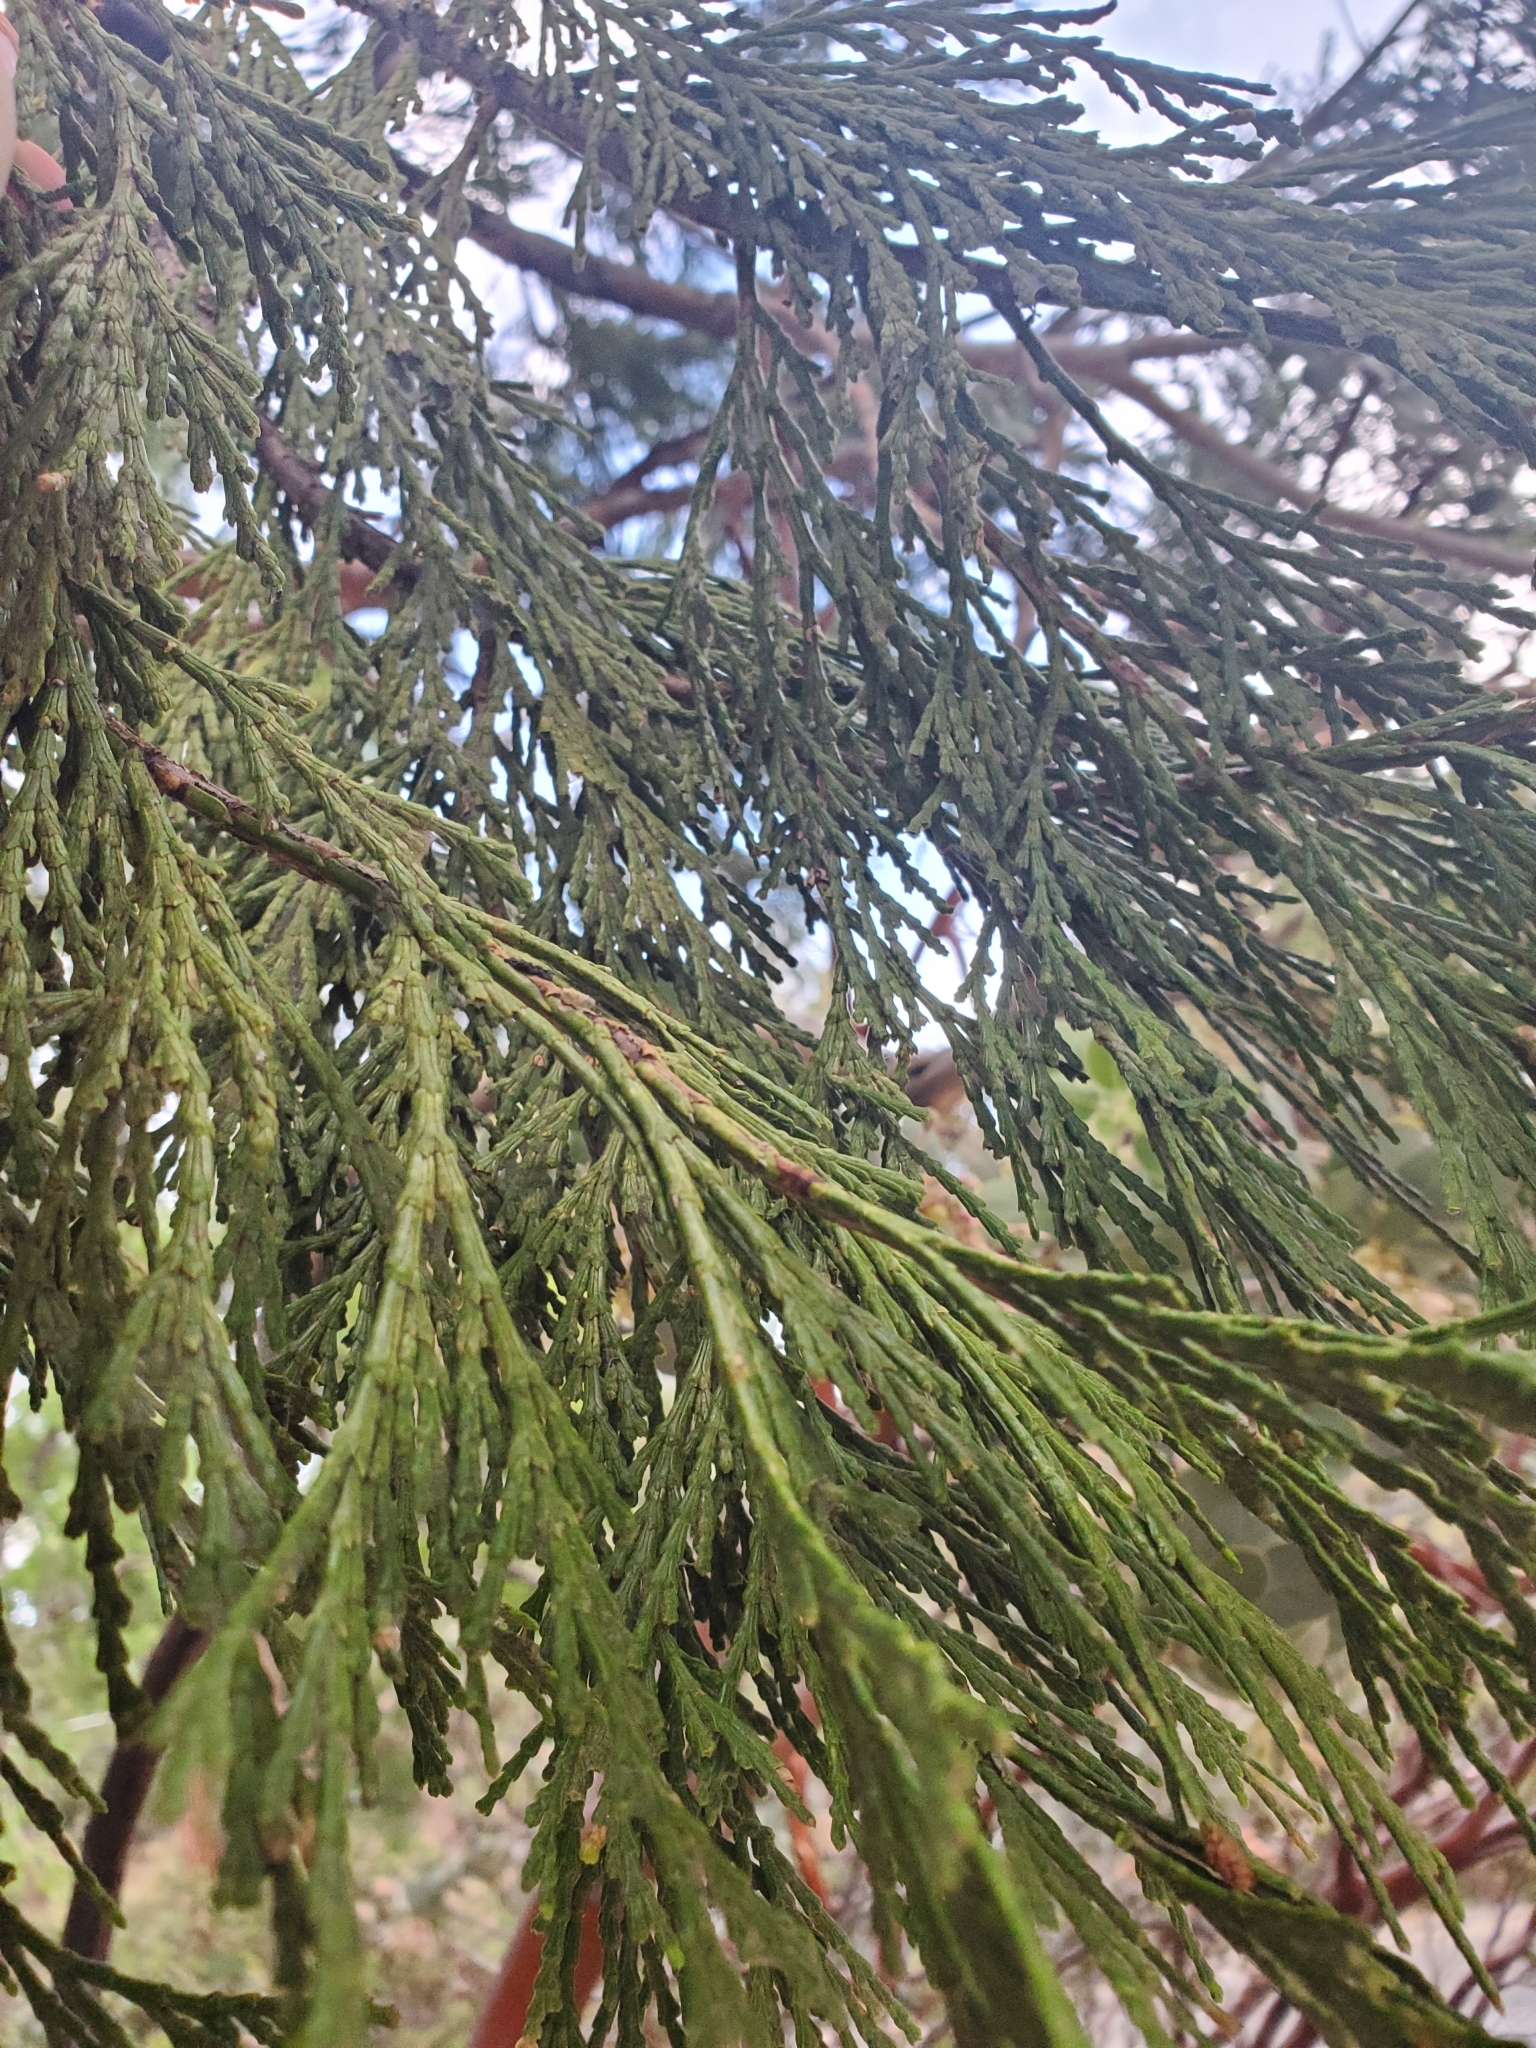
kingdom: Plantae
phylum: Tracheophyta
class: Pinopsida
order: Pinales
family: Cupressaceae
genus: Calocedrus
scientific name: Calocedrus decurrens
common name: Californian incense-cedar
